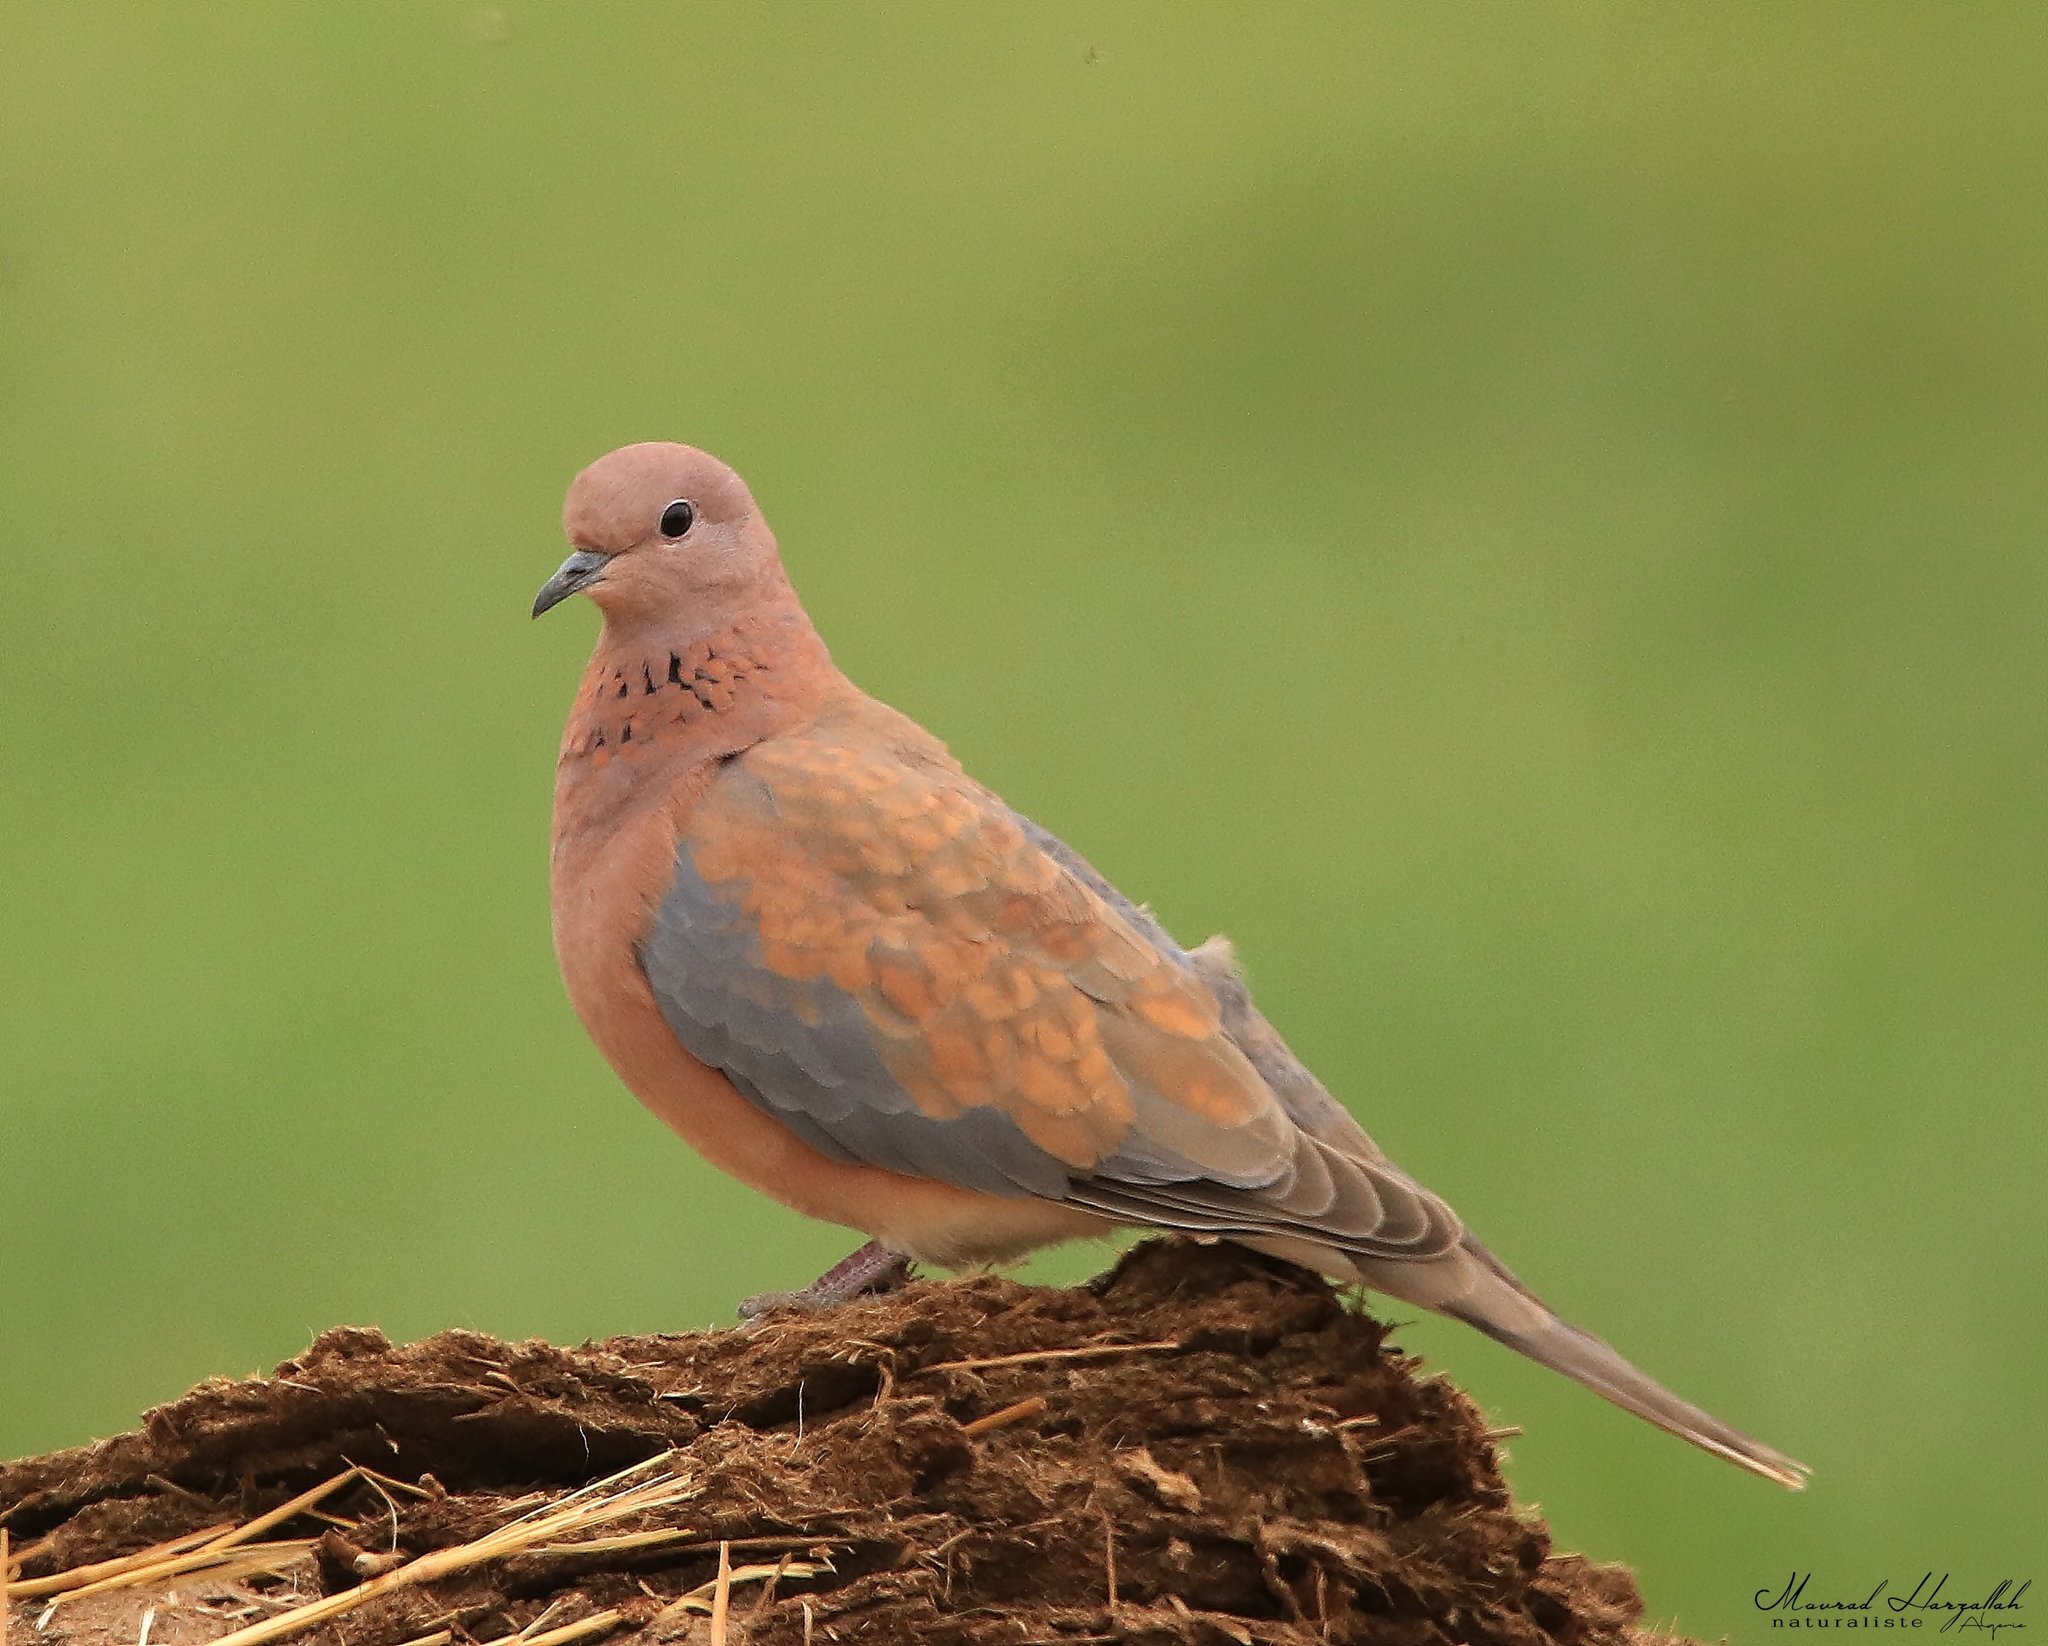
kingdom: Animalia
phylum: Chordata
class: Aves
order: Columbiformes
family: Columbidae
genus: Spilopelia
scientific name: Spilopelia senegalensis
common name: Laughing dove
